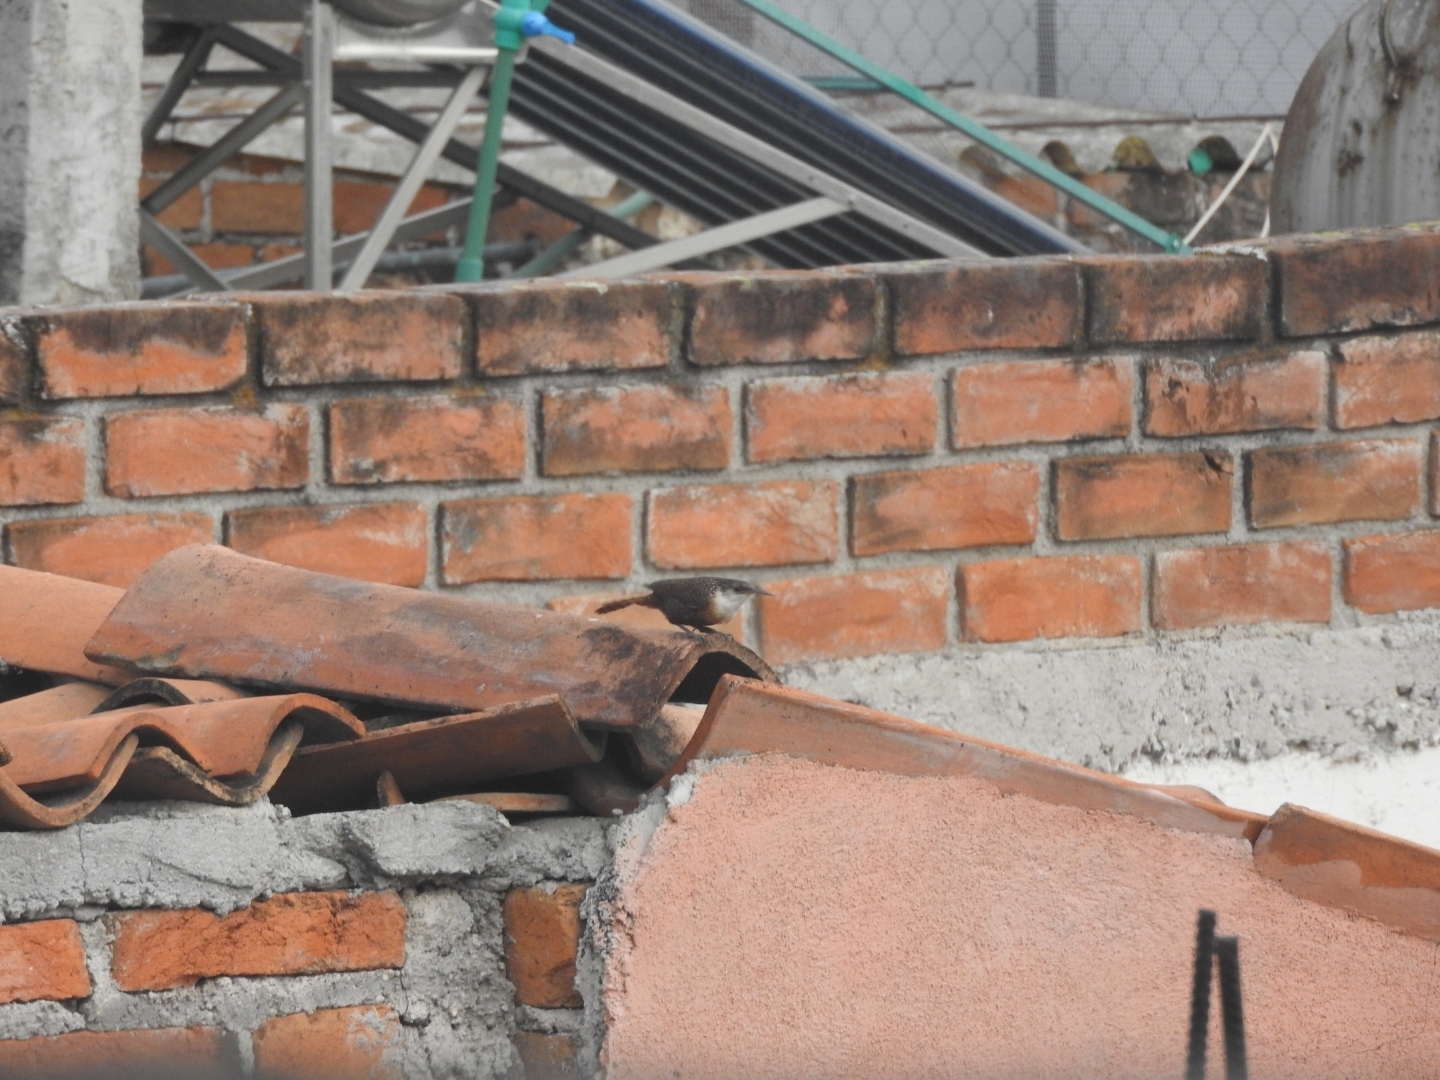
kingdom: Animalia
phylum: Chordata
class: Aves
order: Passeriformes
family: Troglodytidae
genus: Catherpes
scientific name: Catherpes mexicanus
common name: Canyon wren
